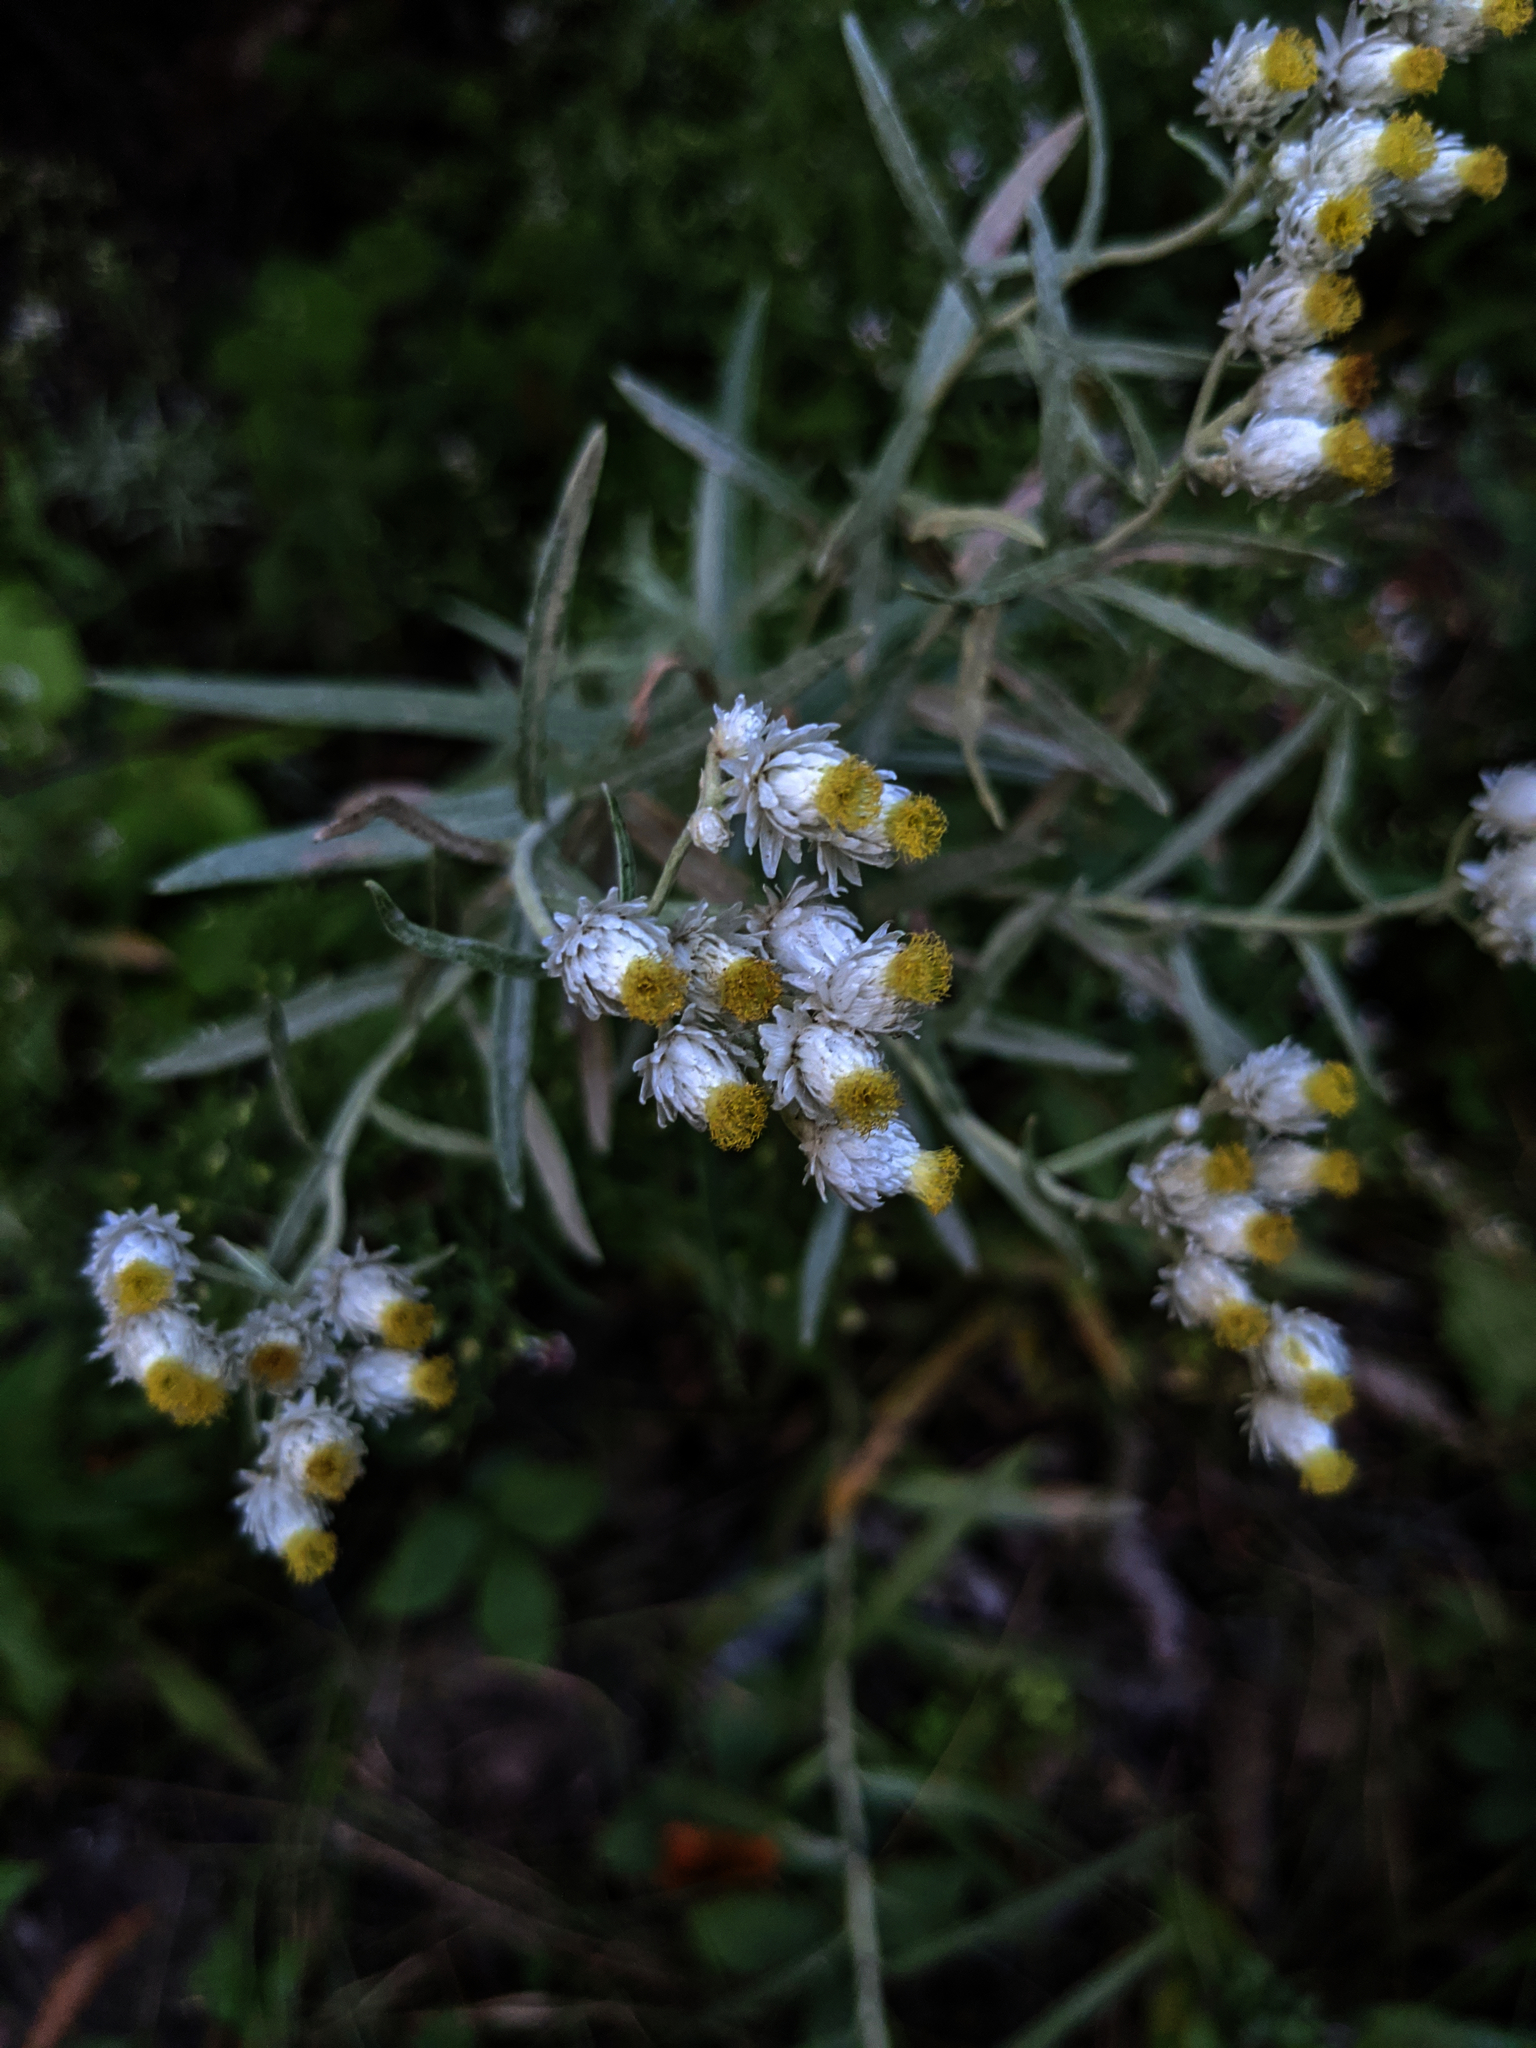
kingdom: Plantae
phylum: Tracheophyta
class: Magnoliopsida
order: Asterales
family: Asteraceae
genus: Anaphalis
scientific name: Anaphalis margaritacea
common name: Pearly everlasting
